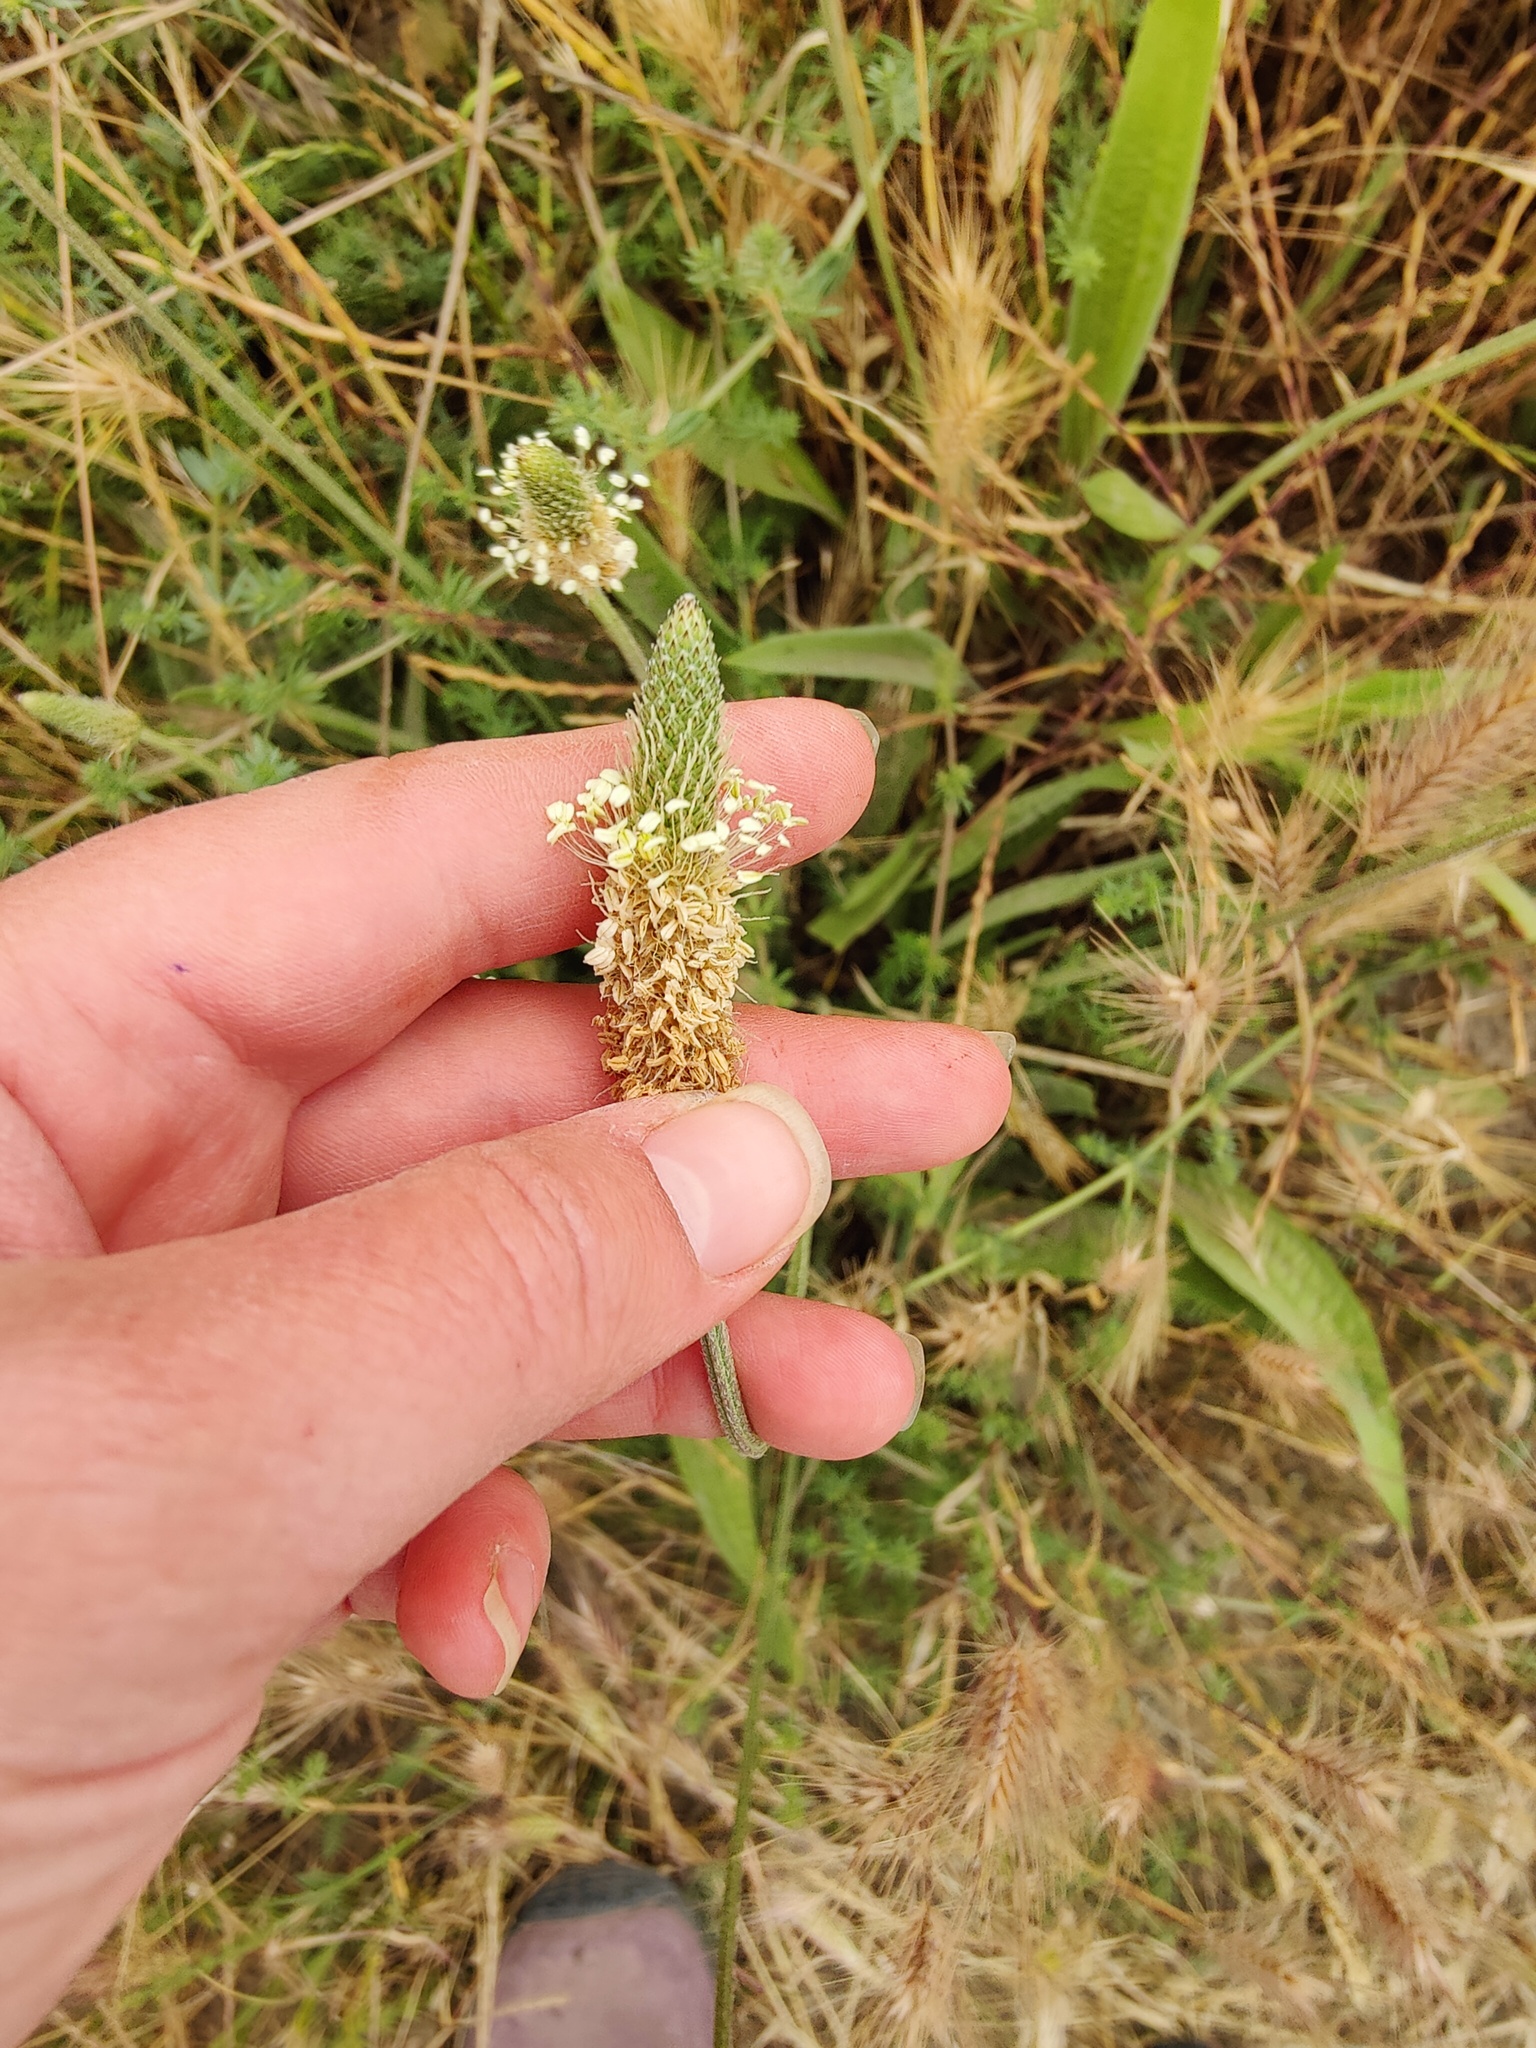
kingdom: Plantae
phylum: Tracheophyta
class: Magnoliopsida
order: Lamiales
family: Plantaginaceae
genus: Plantago
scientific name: Plantago lanceolata
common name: Ribwort plantain
